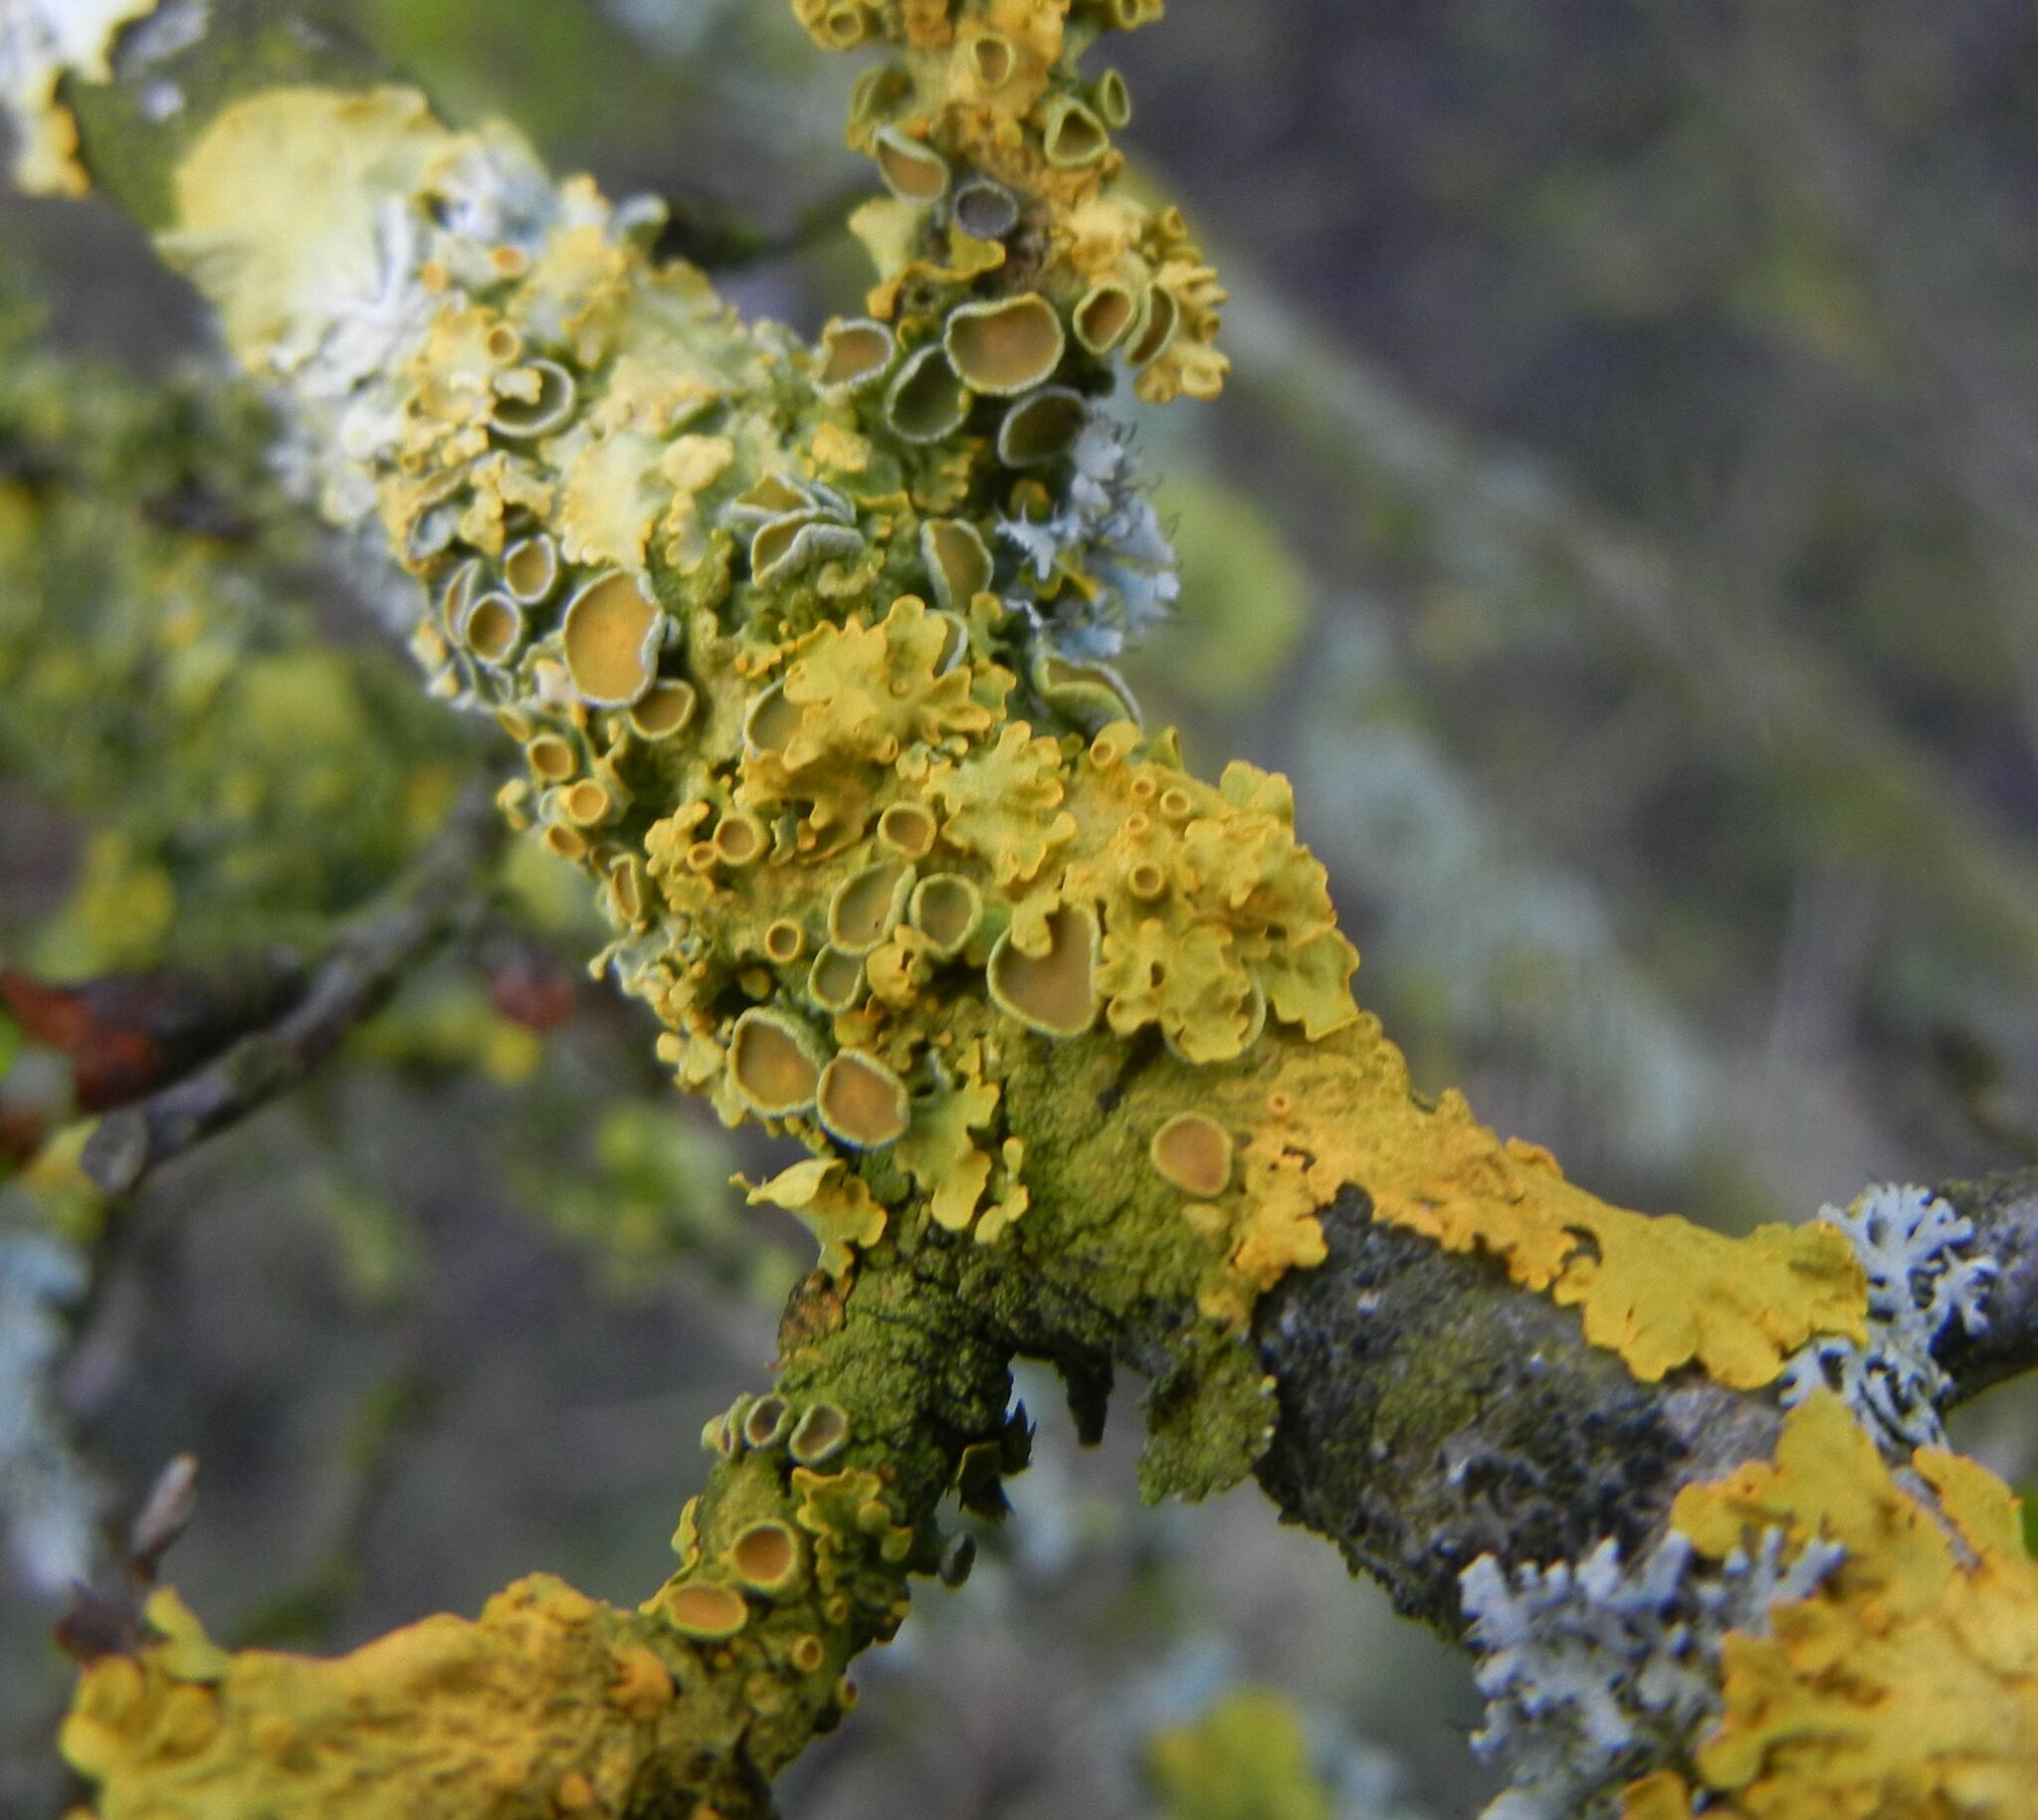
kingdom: Fungi
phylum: Ascomycota
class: Lecanoromycetes
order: Teloschistales
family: Teloschistaceae
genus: Xanthoria
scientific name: Xanthoria parietina
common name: Common orange lichen
